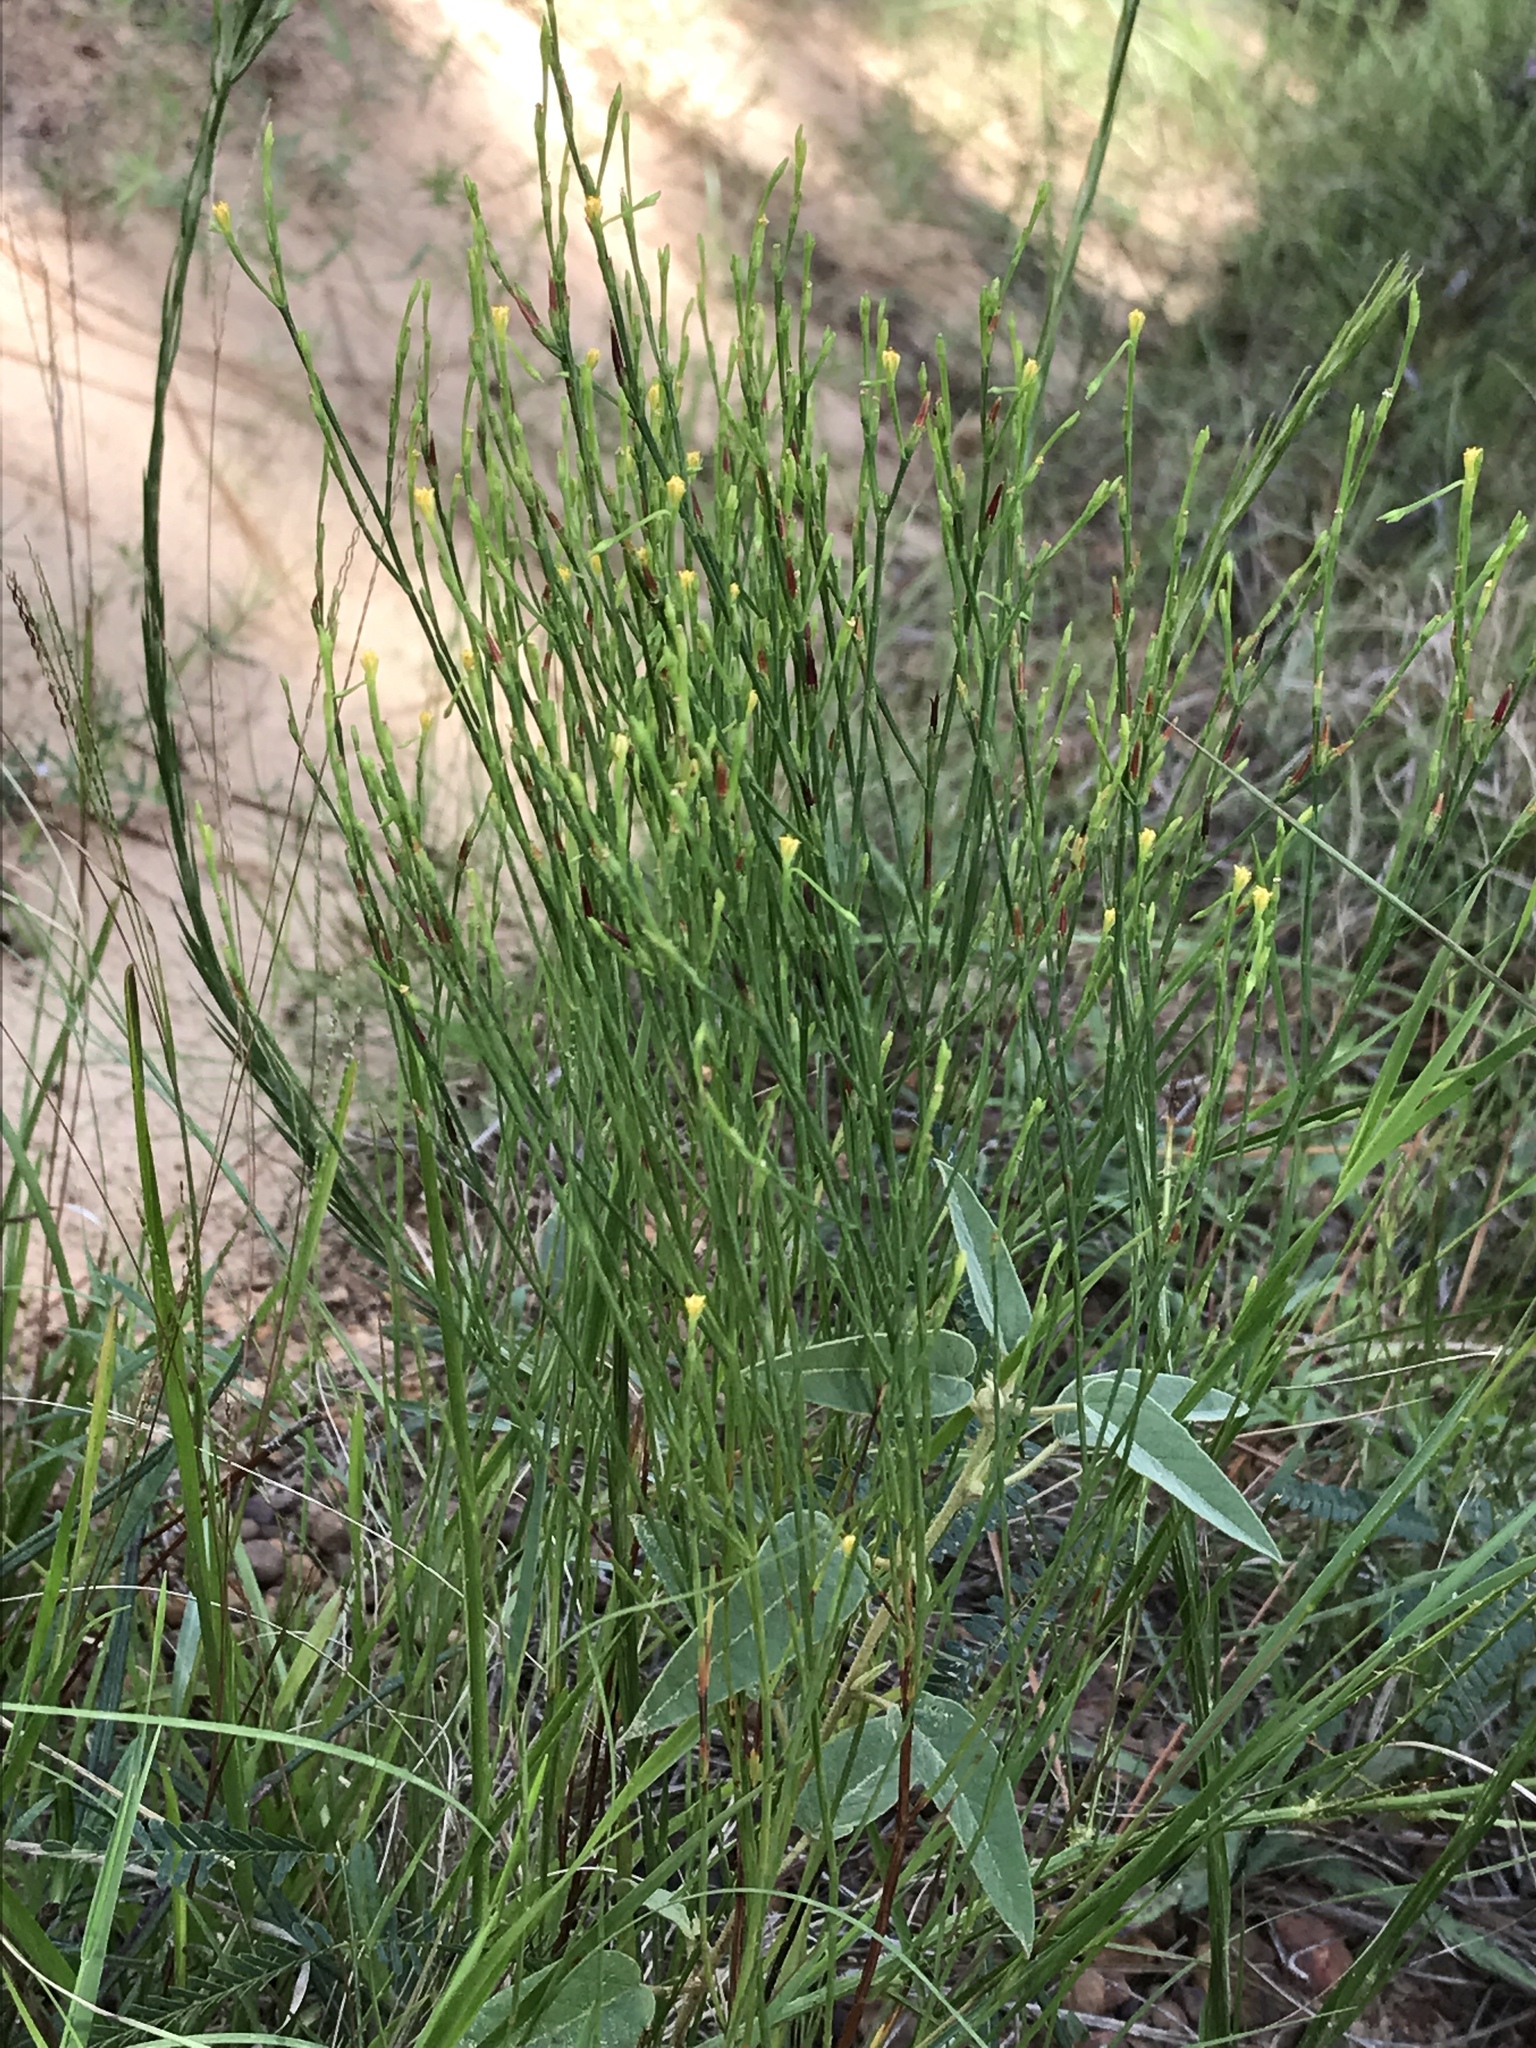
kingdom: Plantae
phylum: Tracheophyta
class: Magnoliopsida
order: Malpighiales
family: Hypericaceae
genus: Hypericum
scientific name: Hypericum gentianoides
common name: Gentian-leaved st. john's-wort
